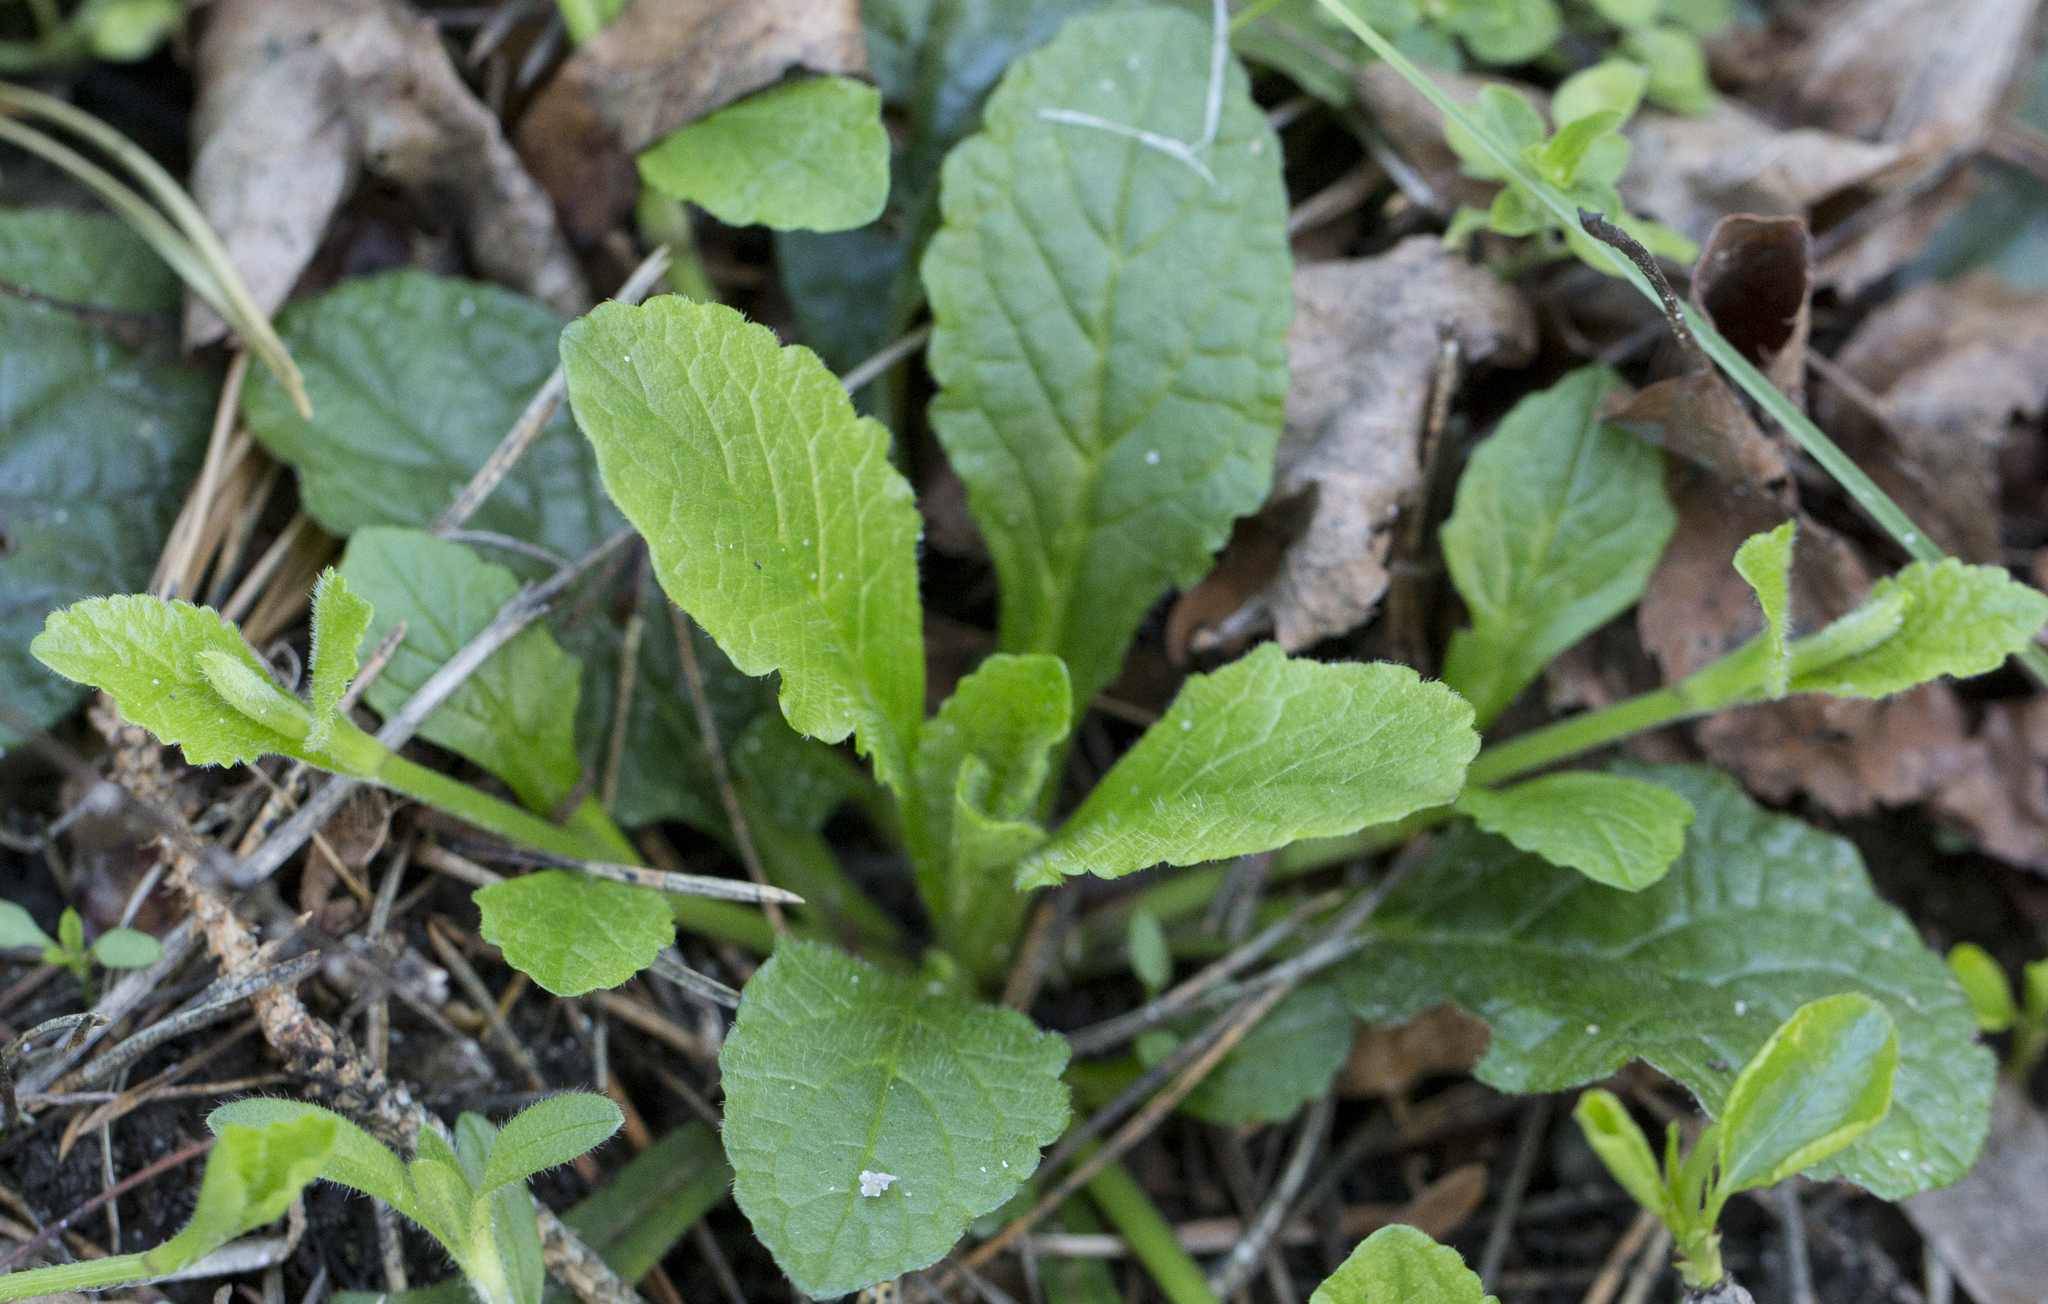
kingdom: Plantae
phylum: Tracheophyta
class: Magnoliopsida
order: Lamiales
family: Lamiaceae
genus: Ajuga
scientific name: Ajuga reptans
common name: Bugle
